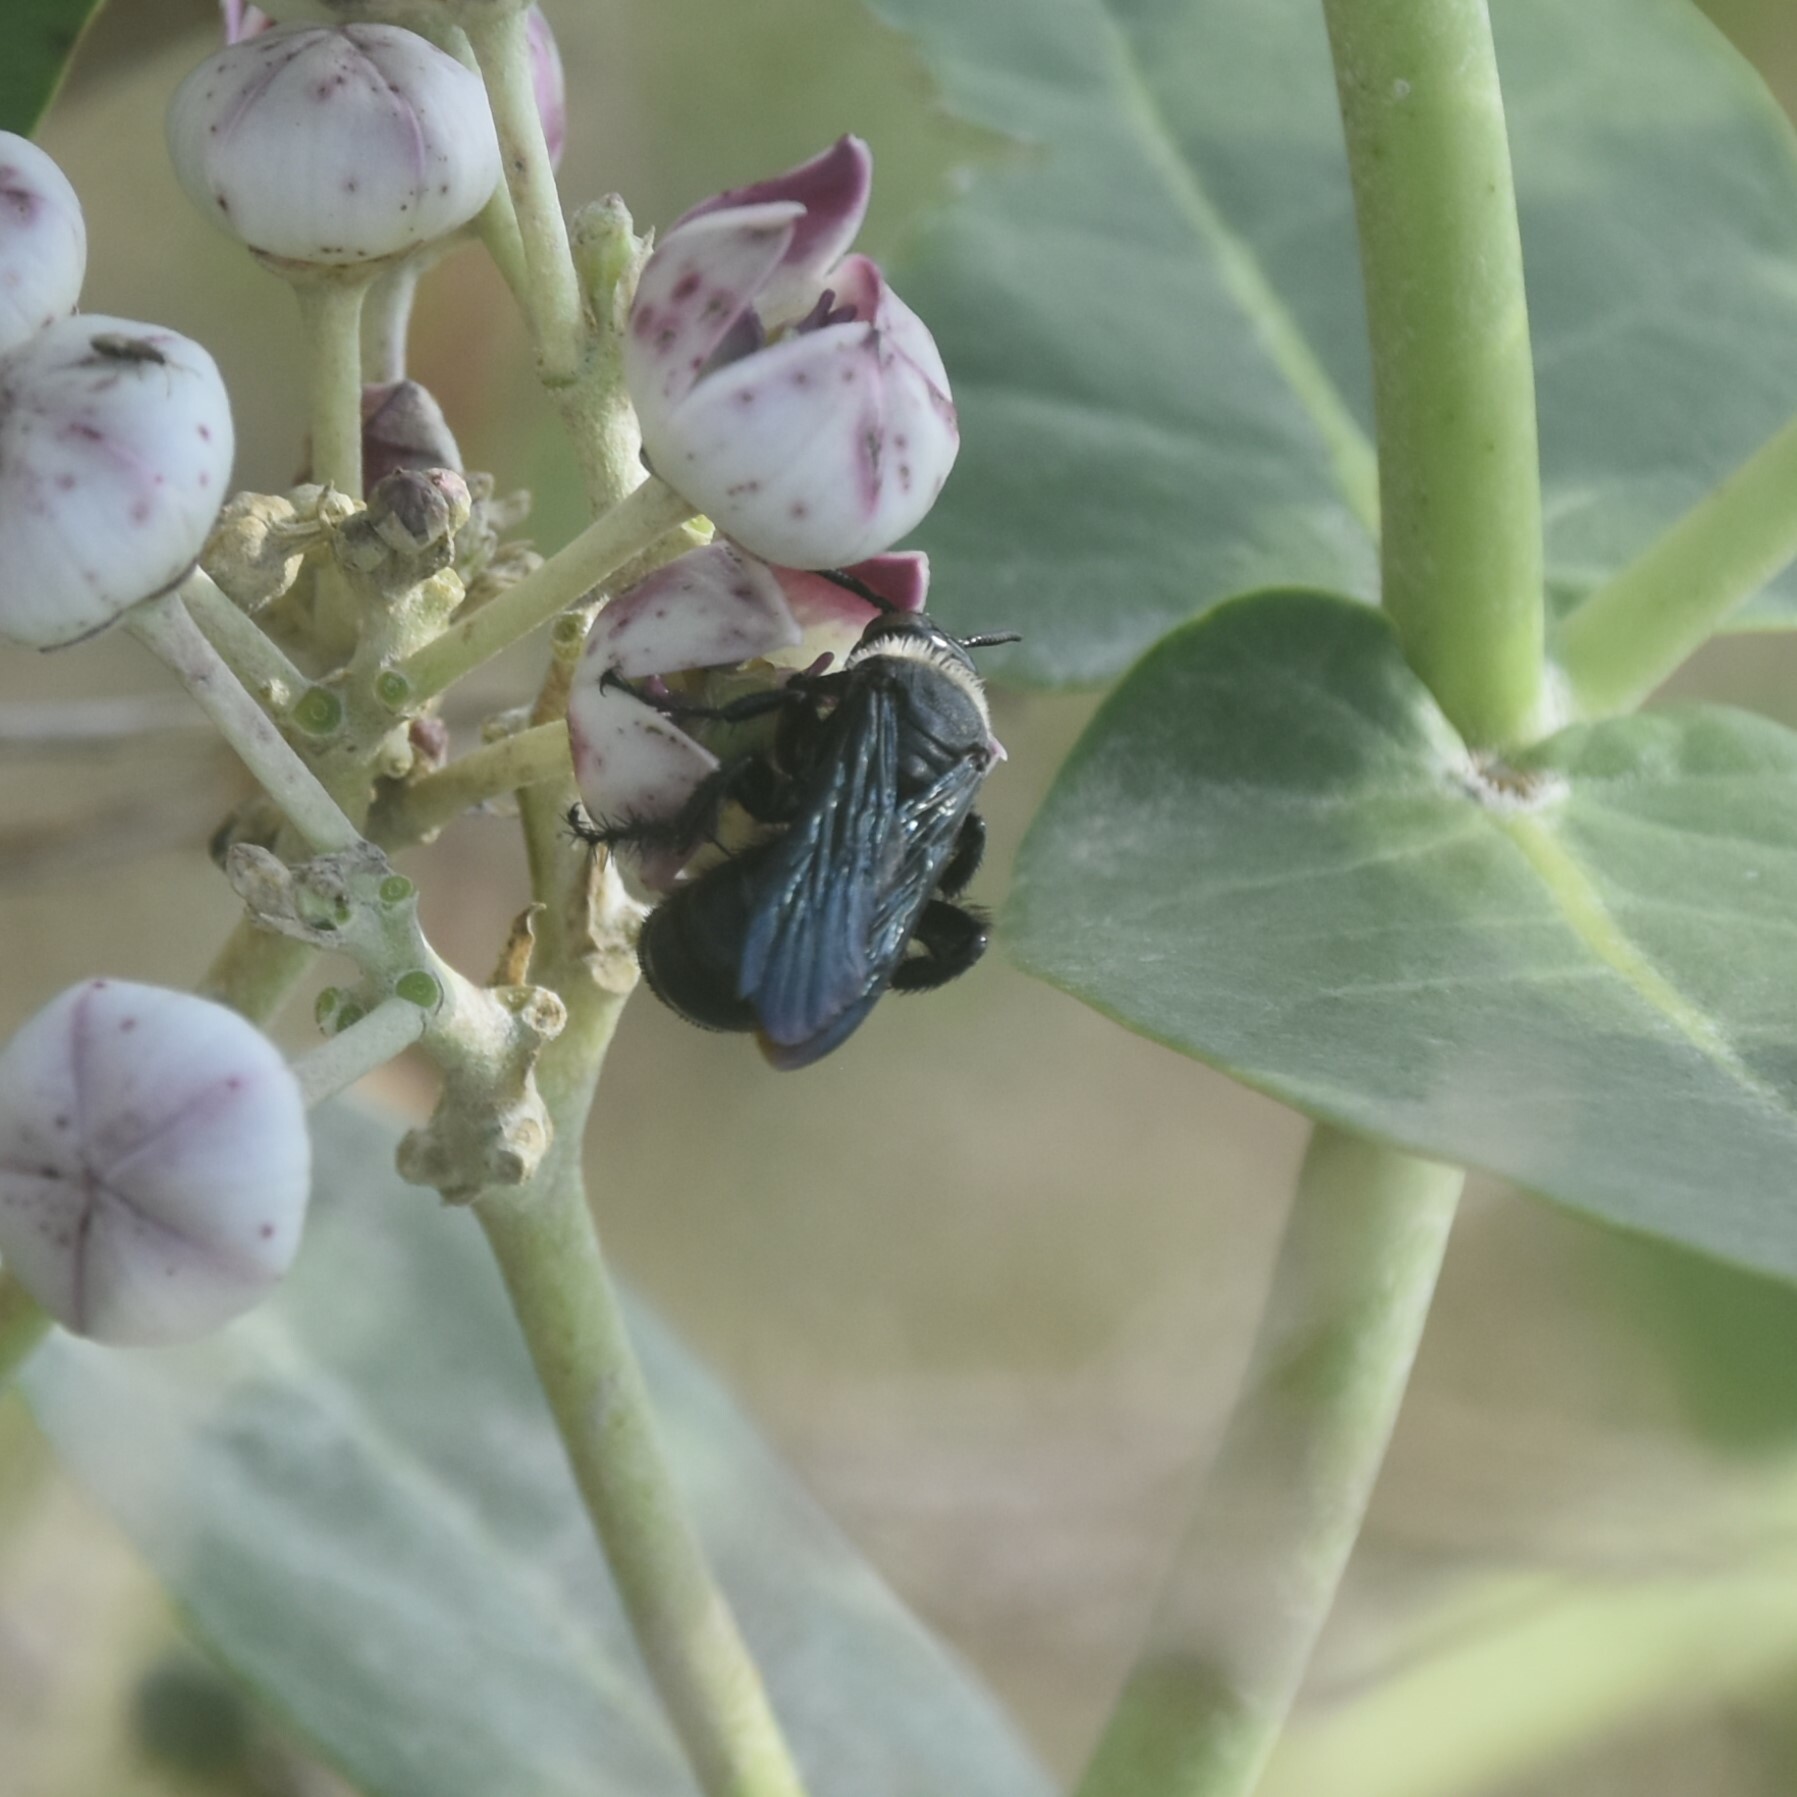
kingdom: Animalia
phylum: Arthropoda
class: Insecta
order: Hymenoptera
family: Scoliidae
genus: Campsomeriella
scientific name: Campsomeriella collaris
